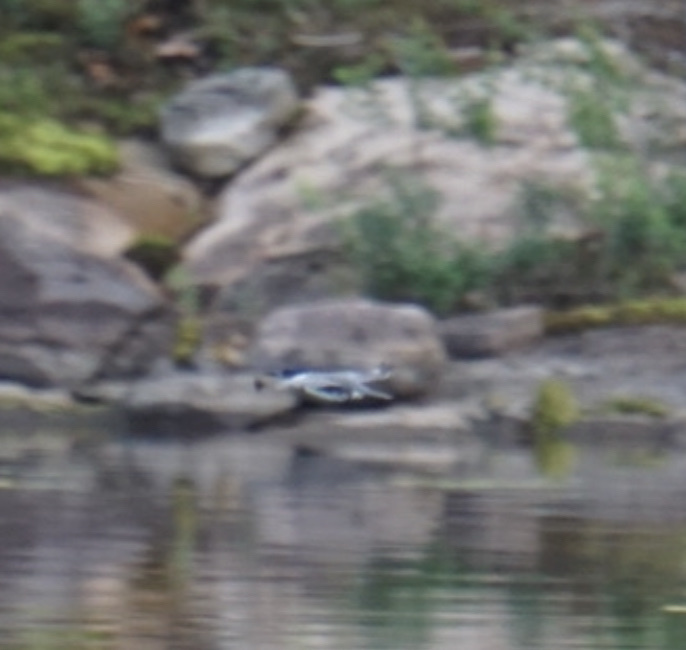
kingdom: Animalia
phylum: Chordata
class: Aves
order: Coraciiformes
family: Alcedinidae
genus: Megaceryle
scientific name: Megaceryle alcyon
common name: Belted kingfisher
